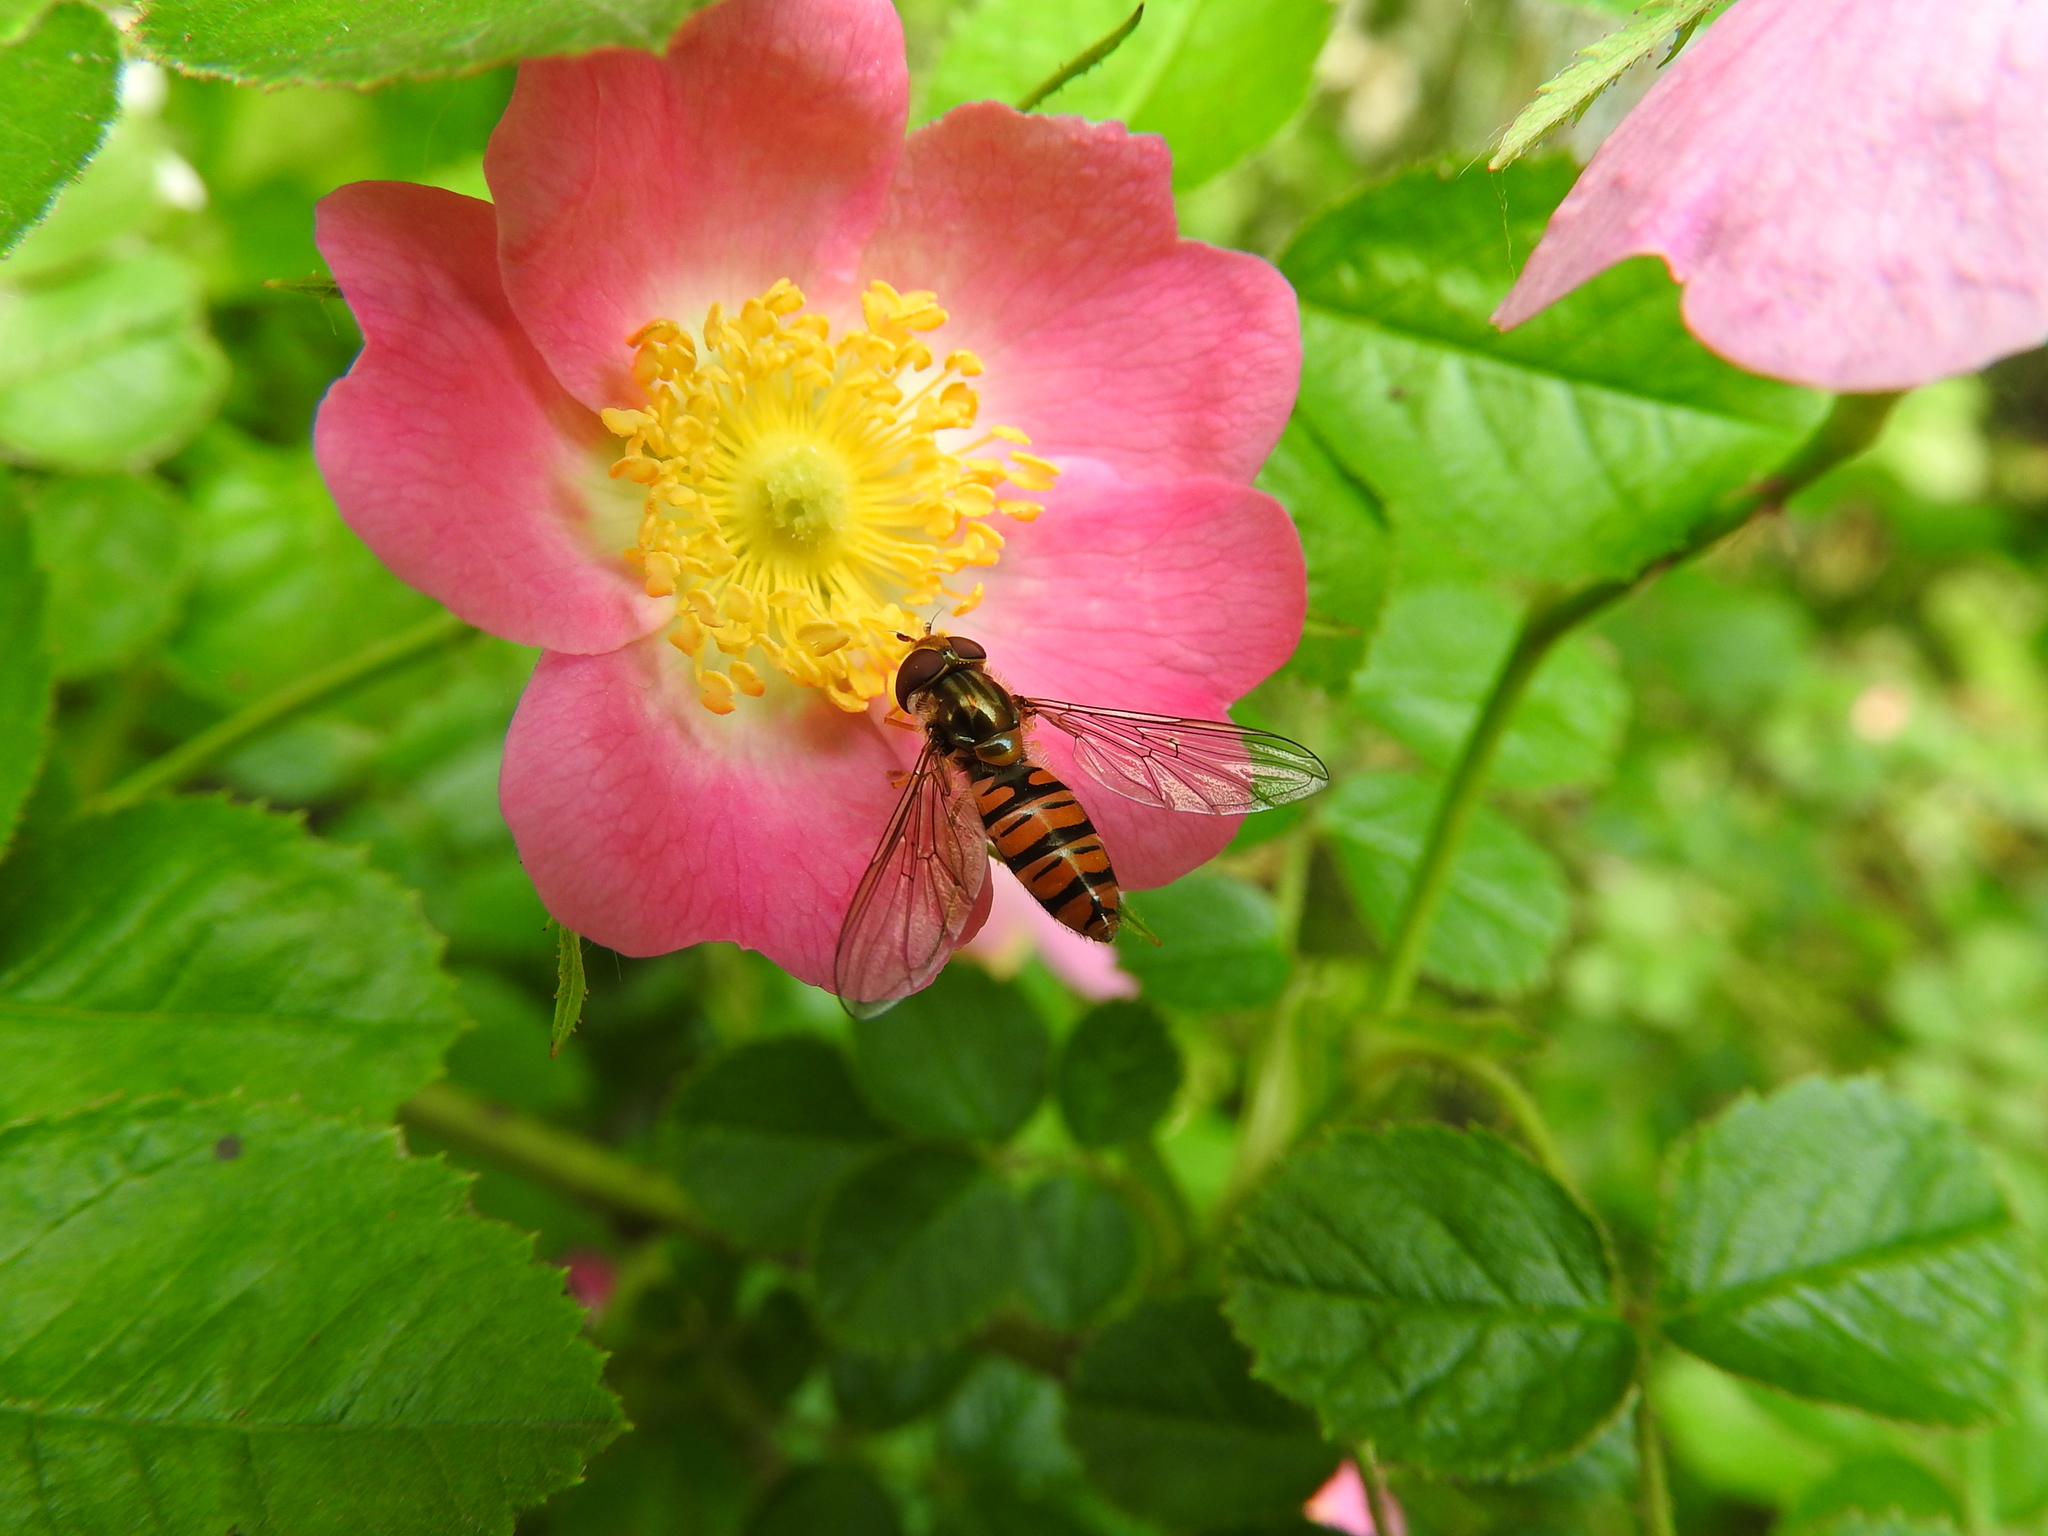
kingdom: Animalia
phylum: Arthropoda
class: Insecta
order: Diptera
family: Syrphidae
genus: Episyrphus
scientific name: Episyrphus balteatus
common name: Marmalade hoverfly
